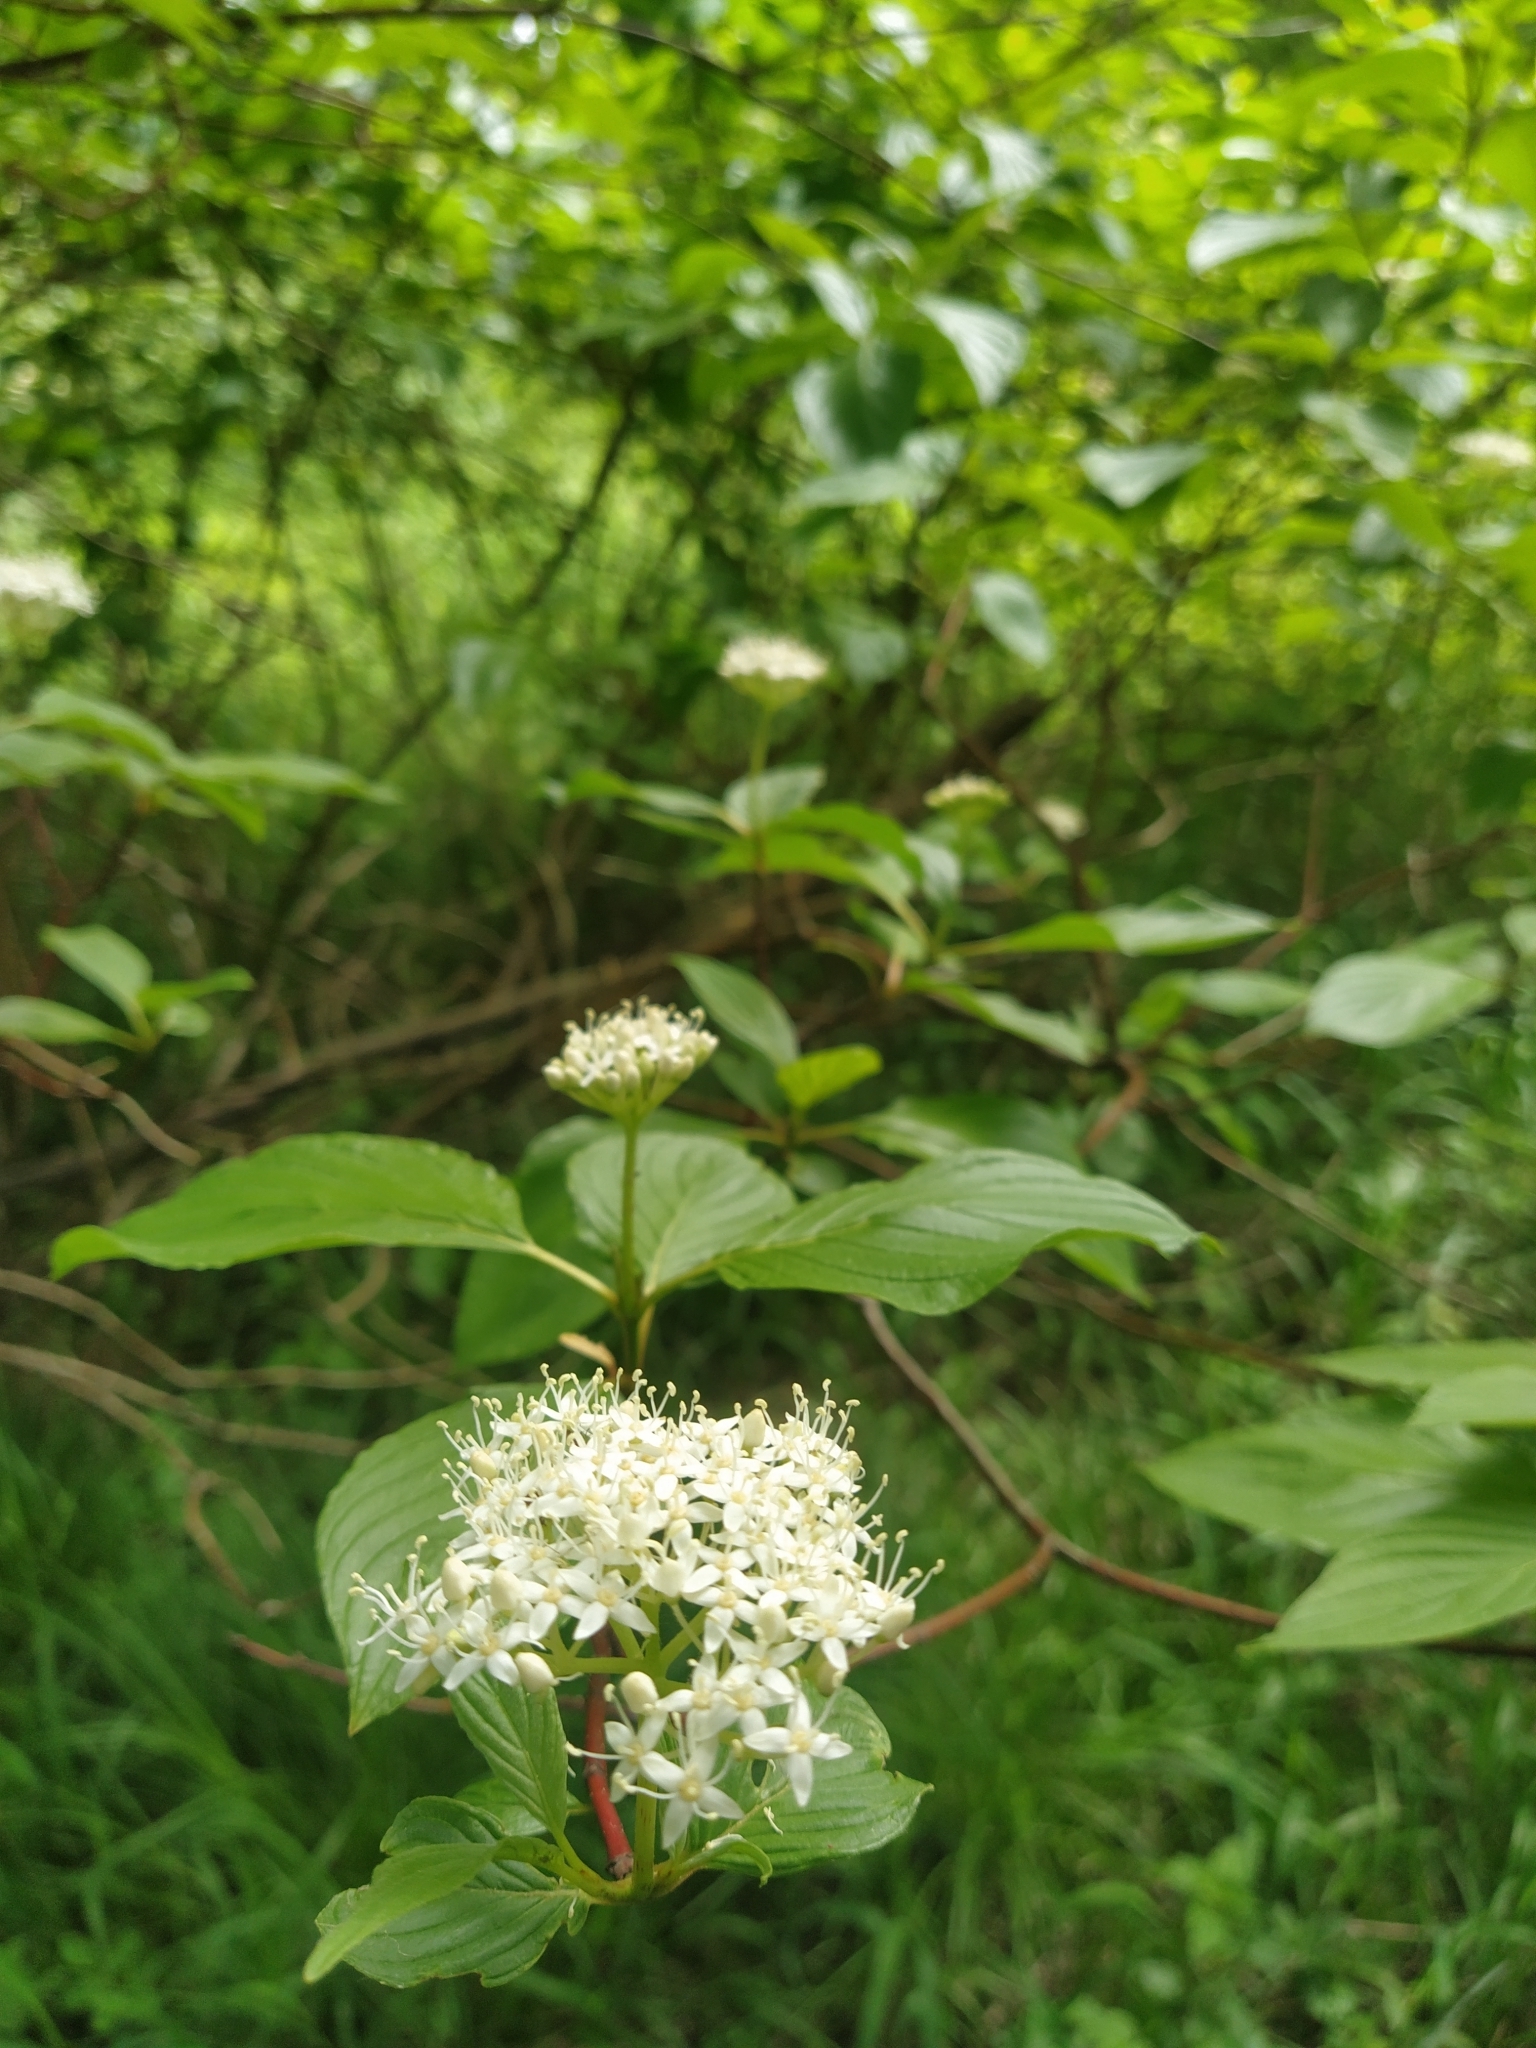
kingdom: Plantae
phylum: Tracheophyta
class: Magnoliopsida
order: Cornales
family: Cornaceae
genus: Cornus
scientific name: Cornus sericea
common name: Red-osier dogwood
